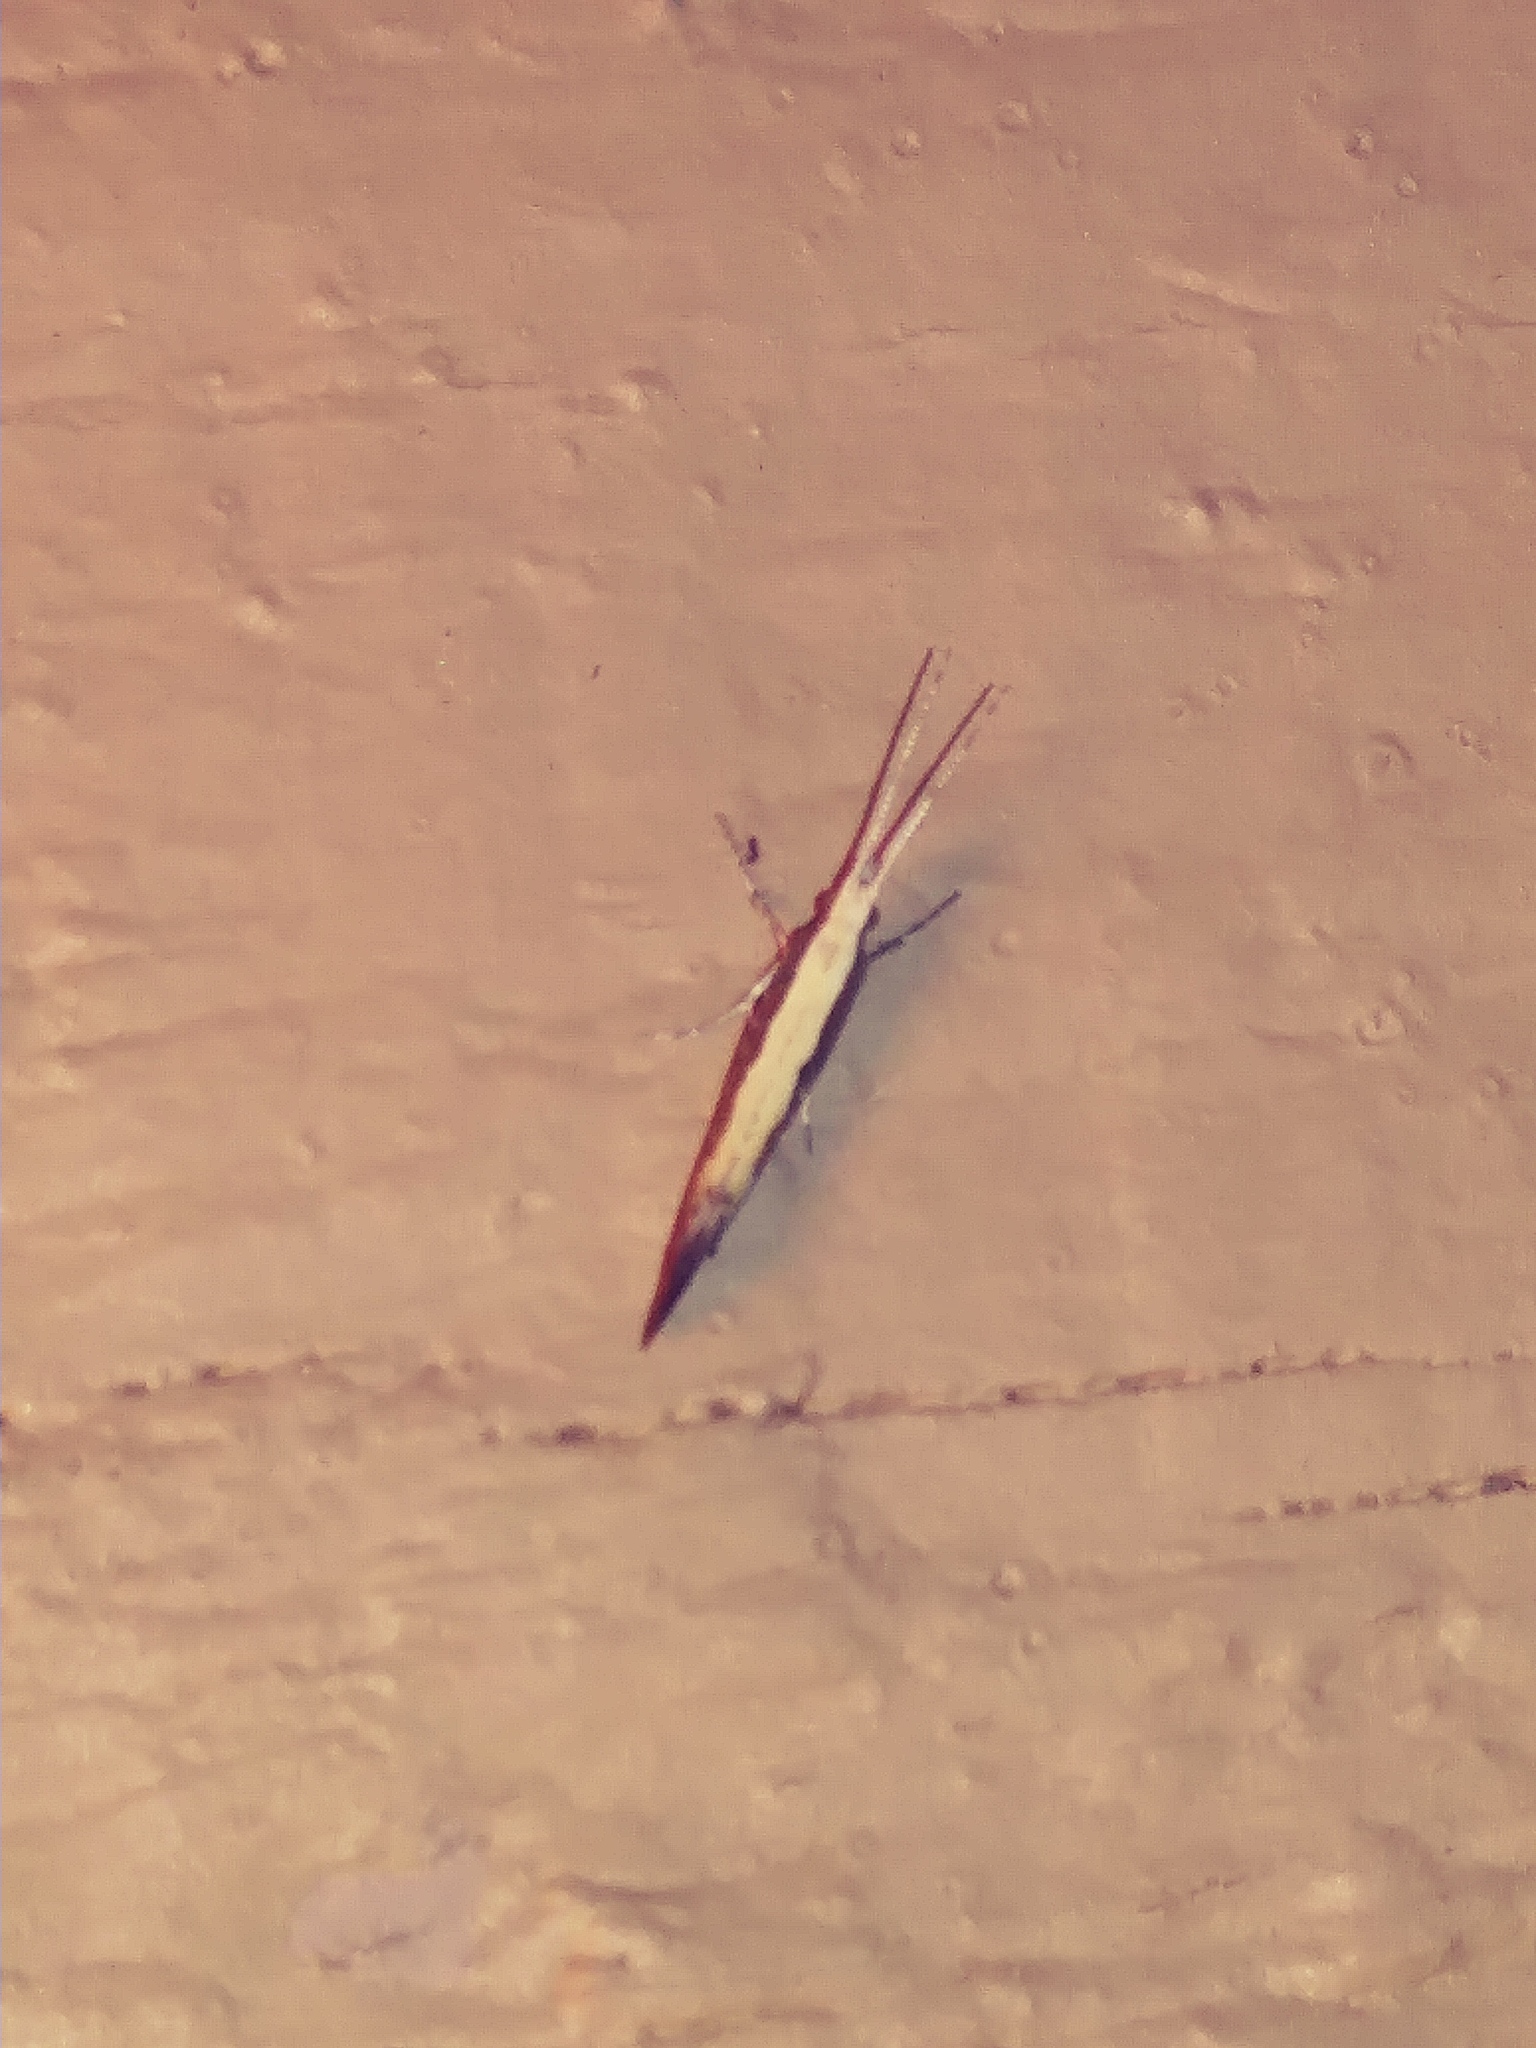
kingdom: Animalia
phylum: Arthropoda
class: Insecta
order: Lepidoptera
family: Plutellidae
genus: Plutella
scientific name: Plutella xylostella
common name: Diamond-back moth
